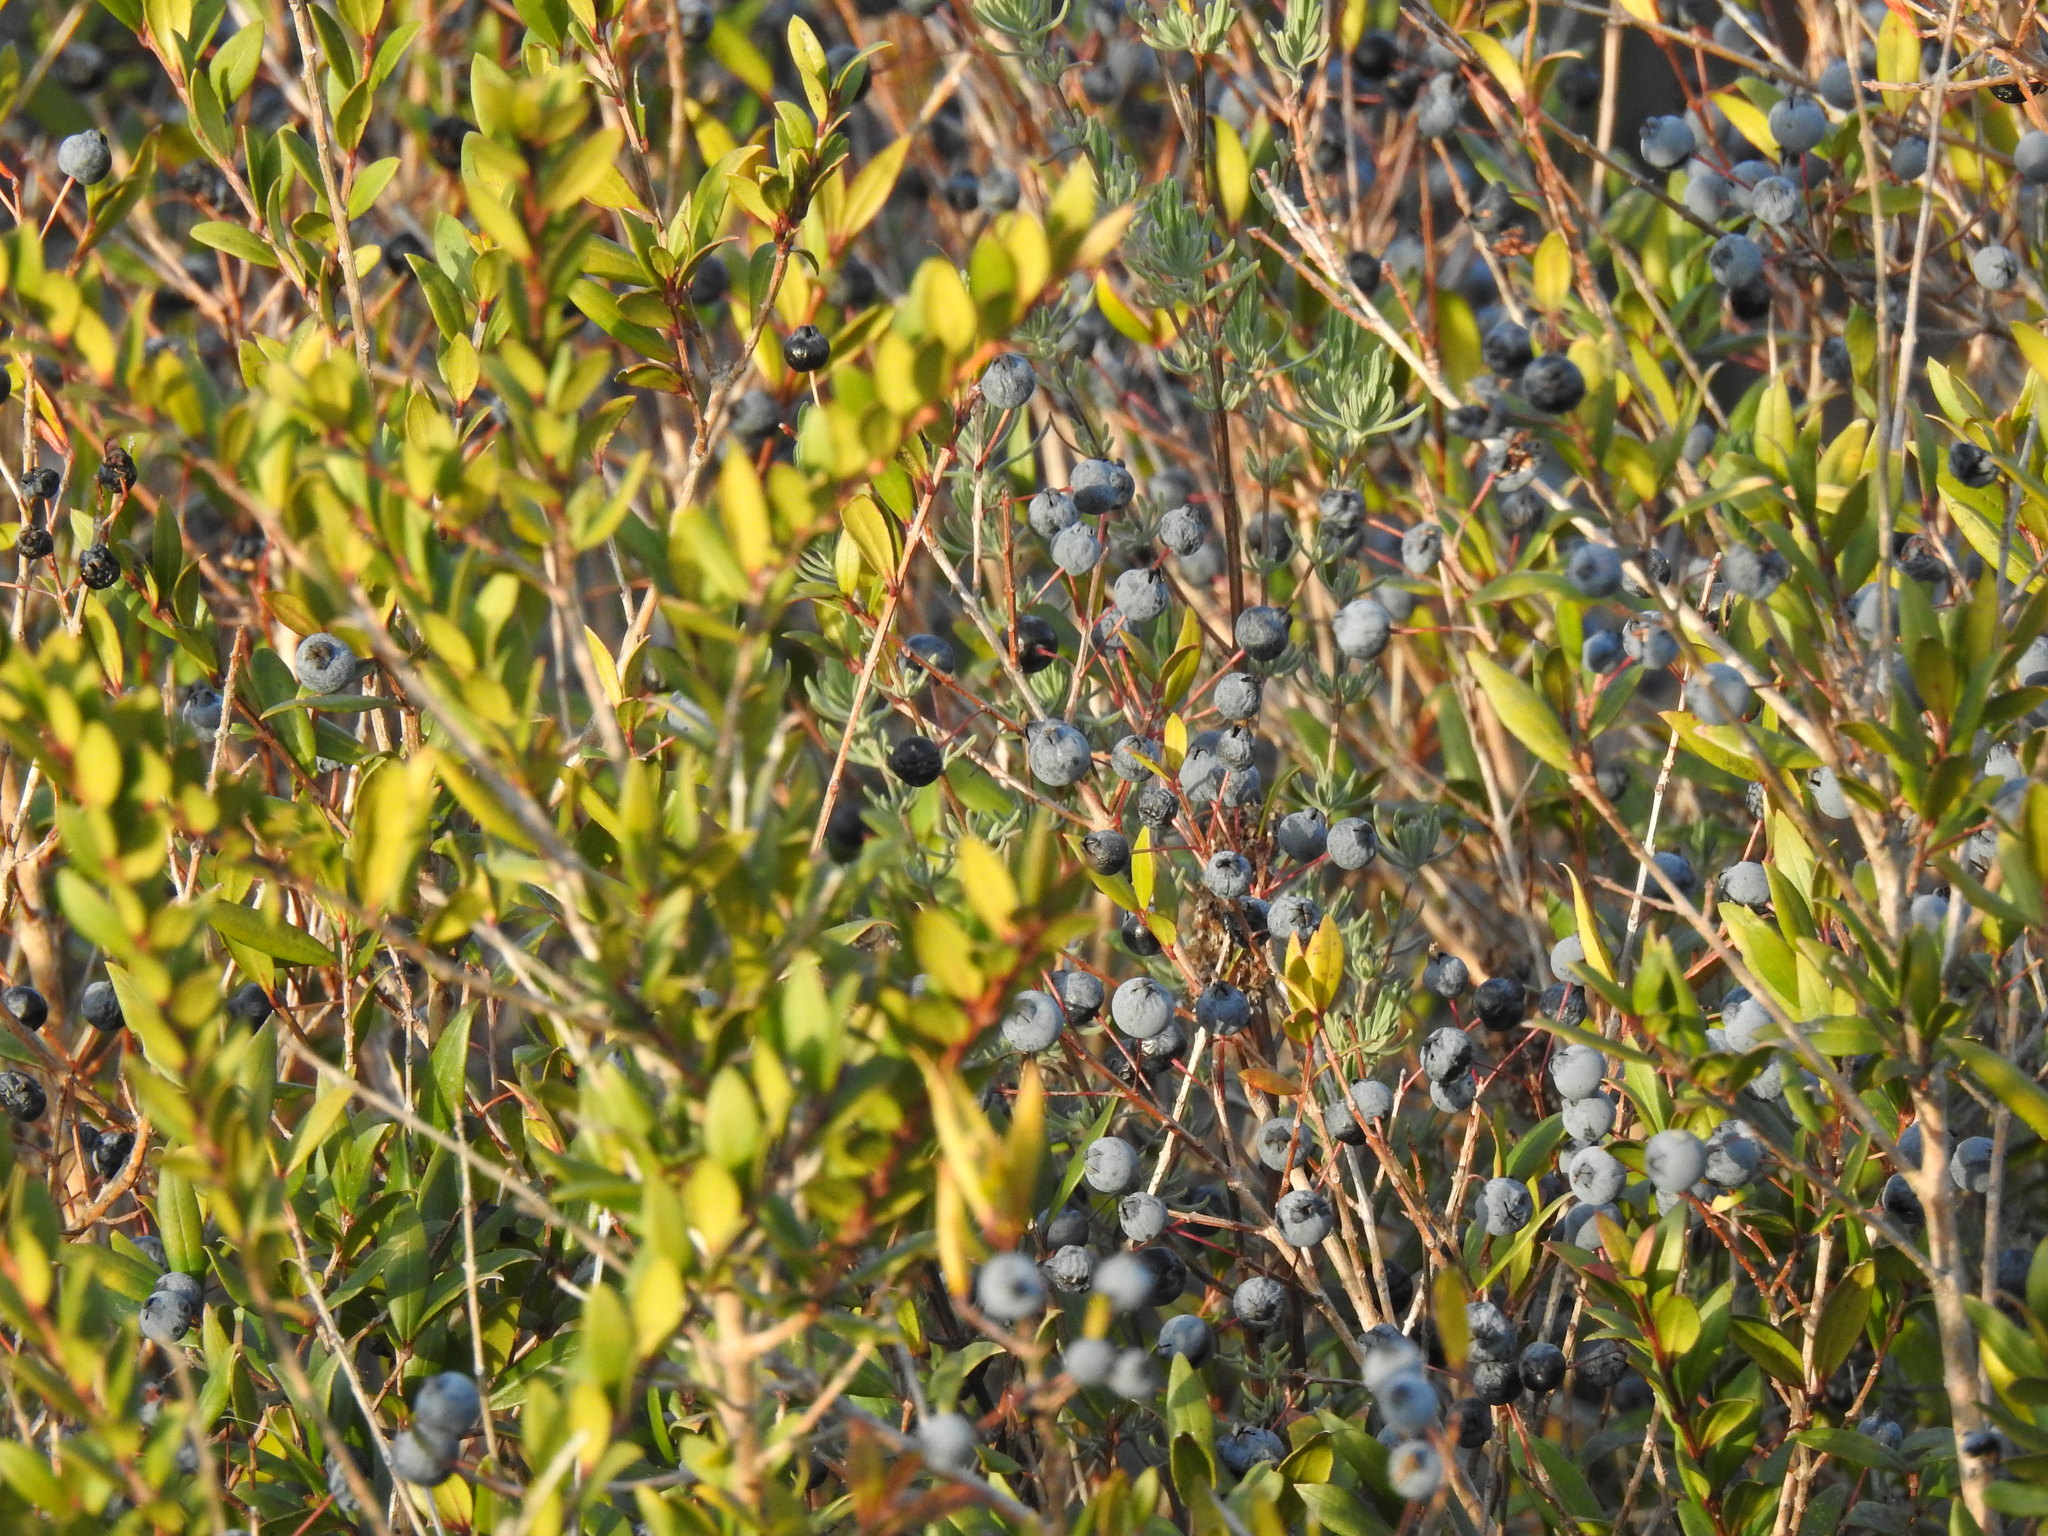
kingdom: Plantae
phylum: Tracheophyta
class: Magnoliopsida
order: Myrtales
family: Myrtaceae
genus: Myrtus
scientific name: Myrtus communis
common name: Myrtle
